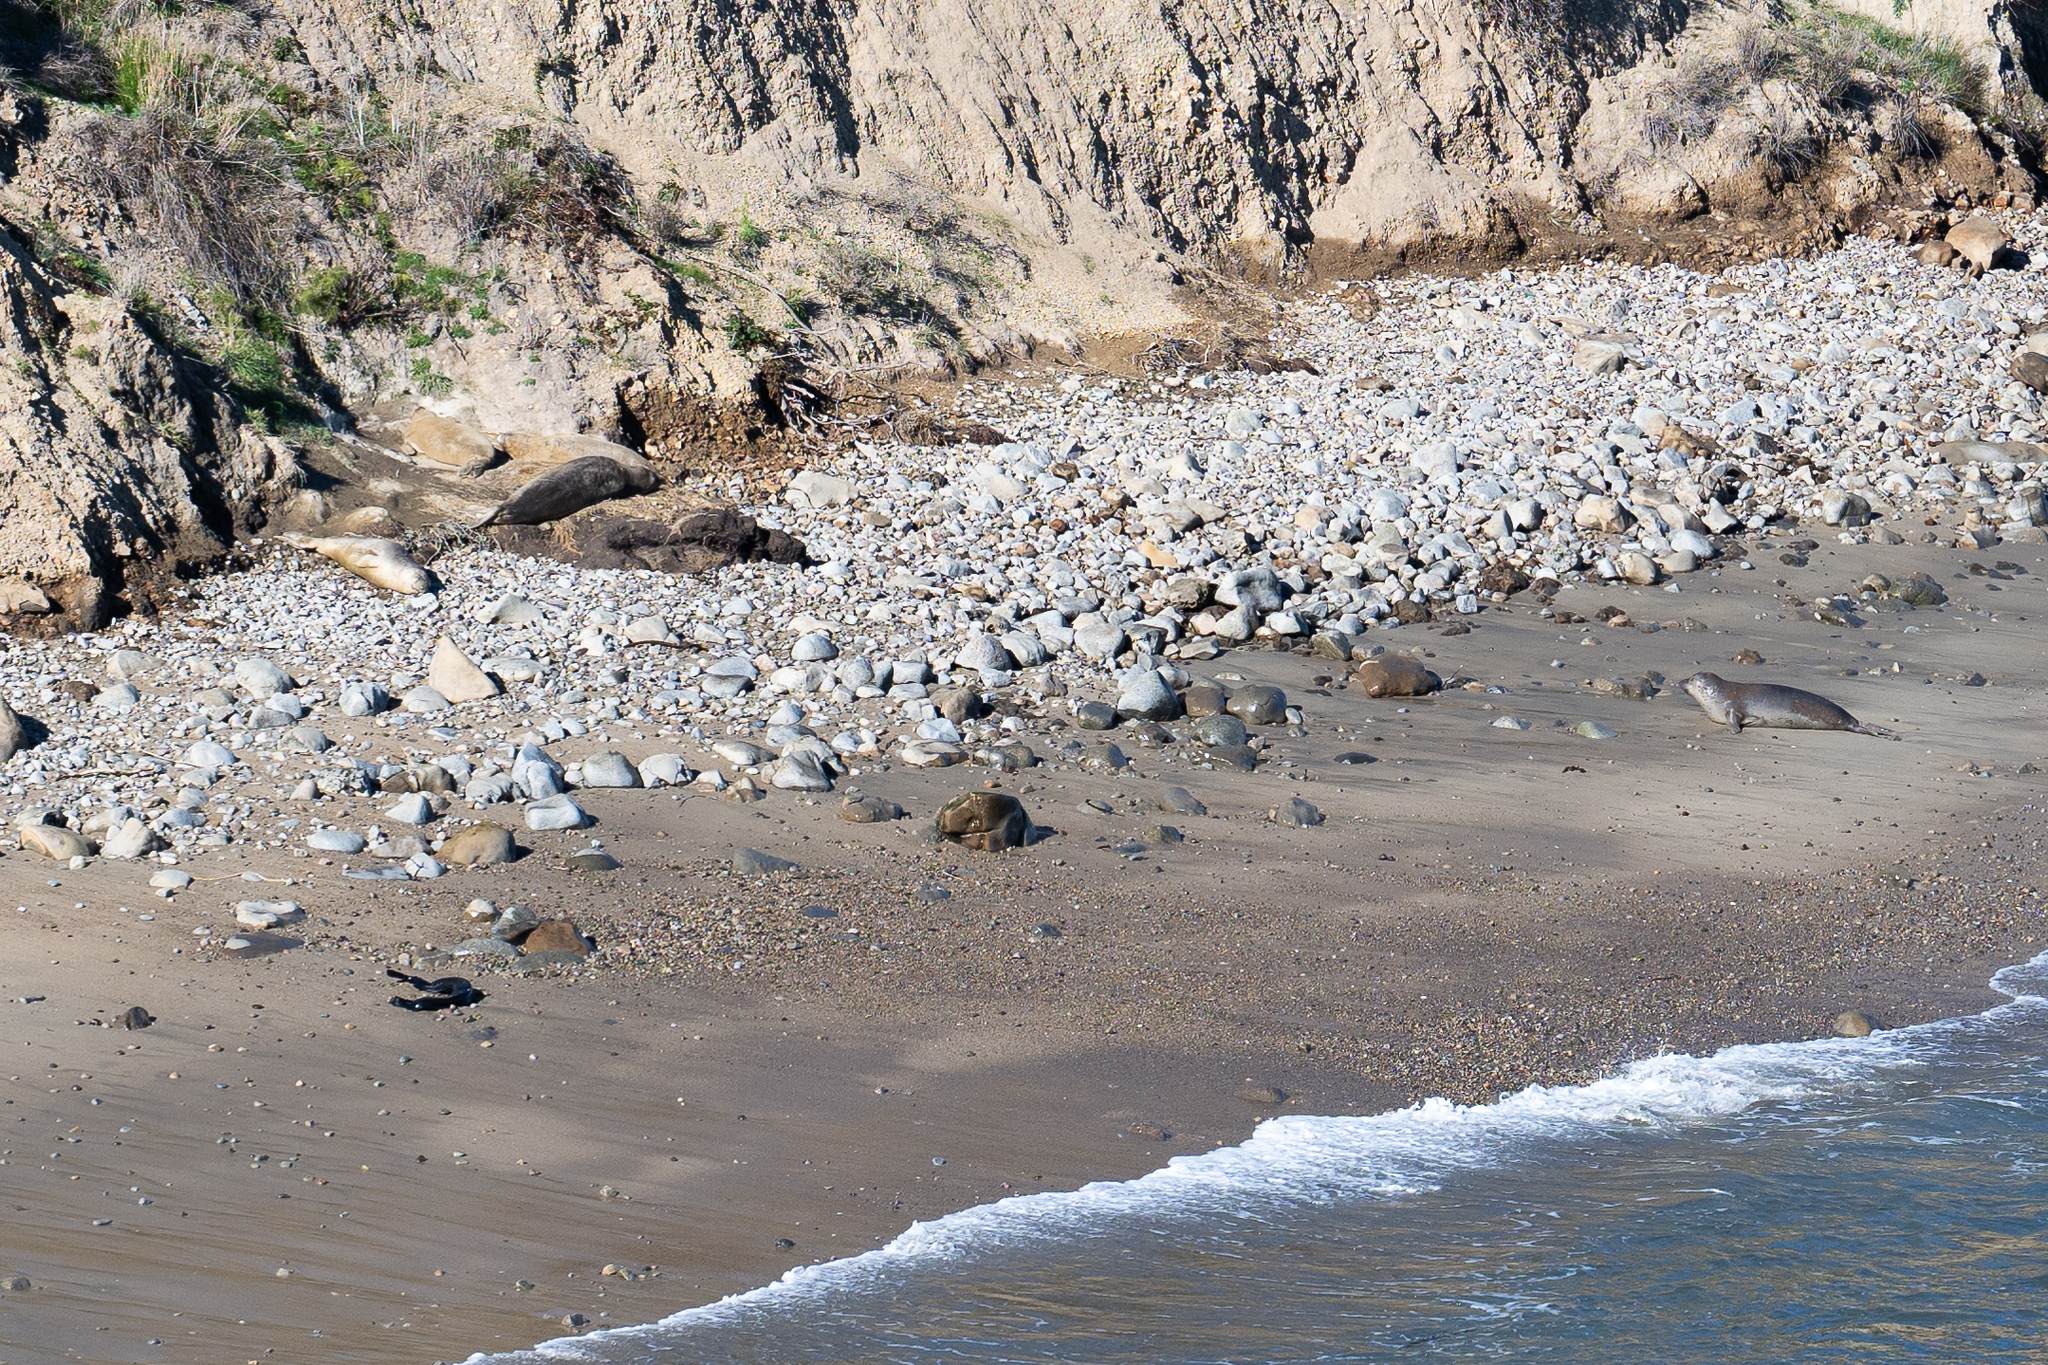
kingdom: Animalia
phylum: Chordata
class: Mammalia
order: Carnivora
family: Phocidae
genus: Mirounga
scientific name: Mirounga angustirostris
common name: Northern elephant seal
